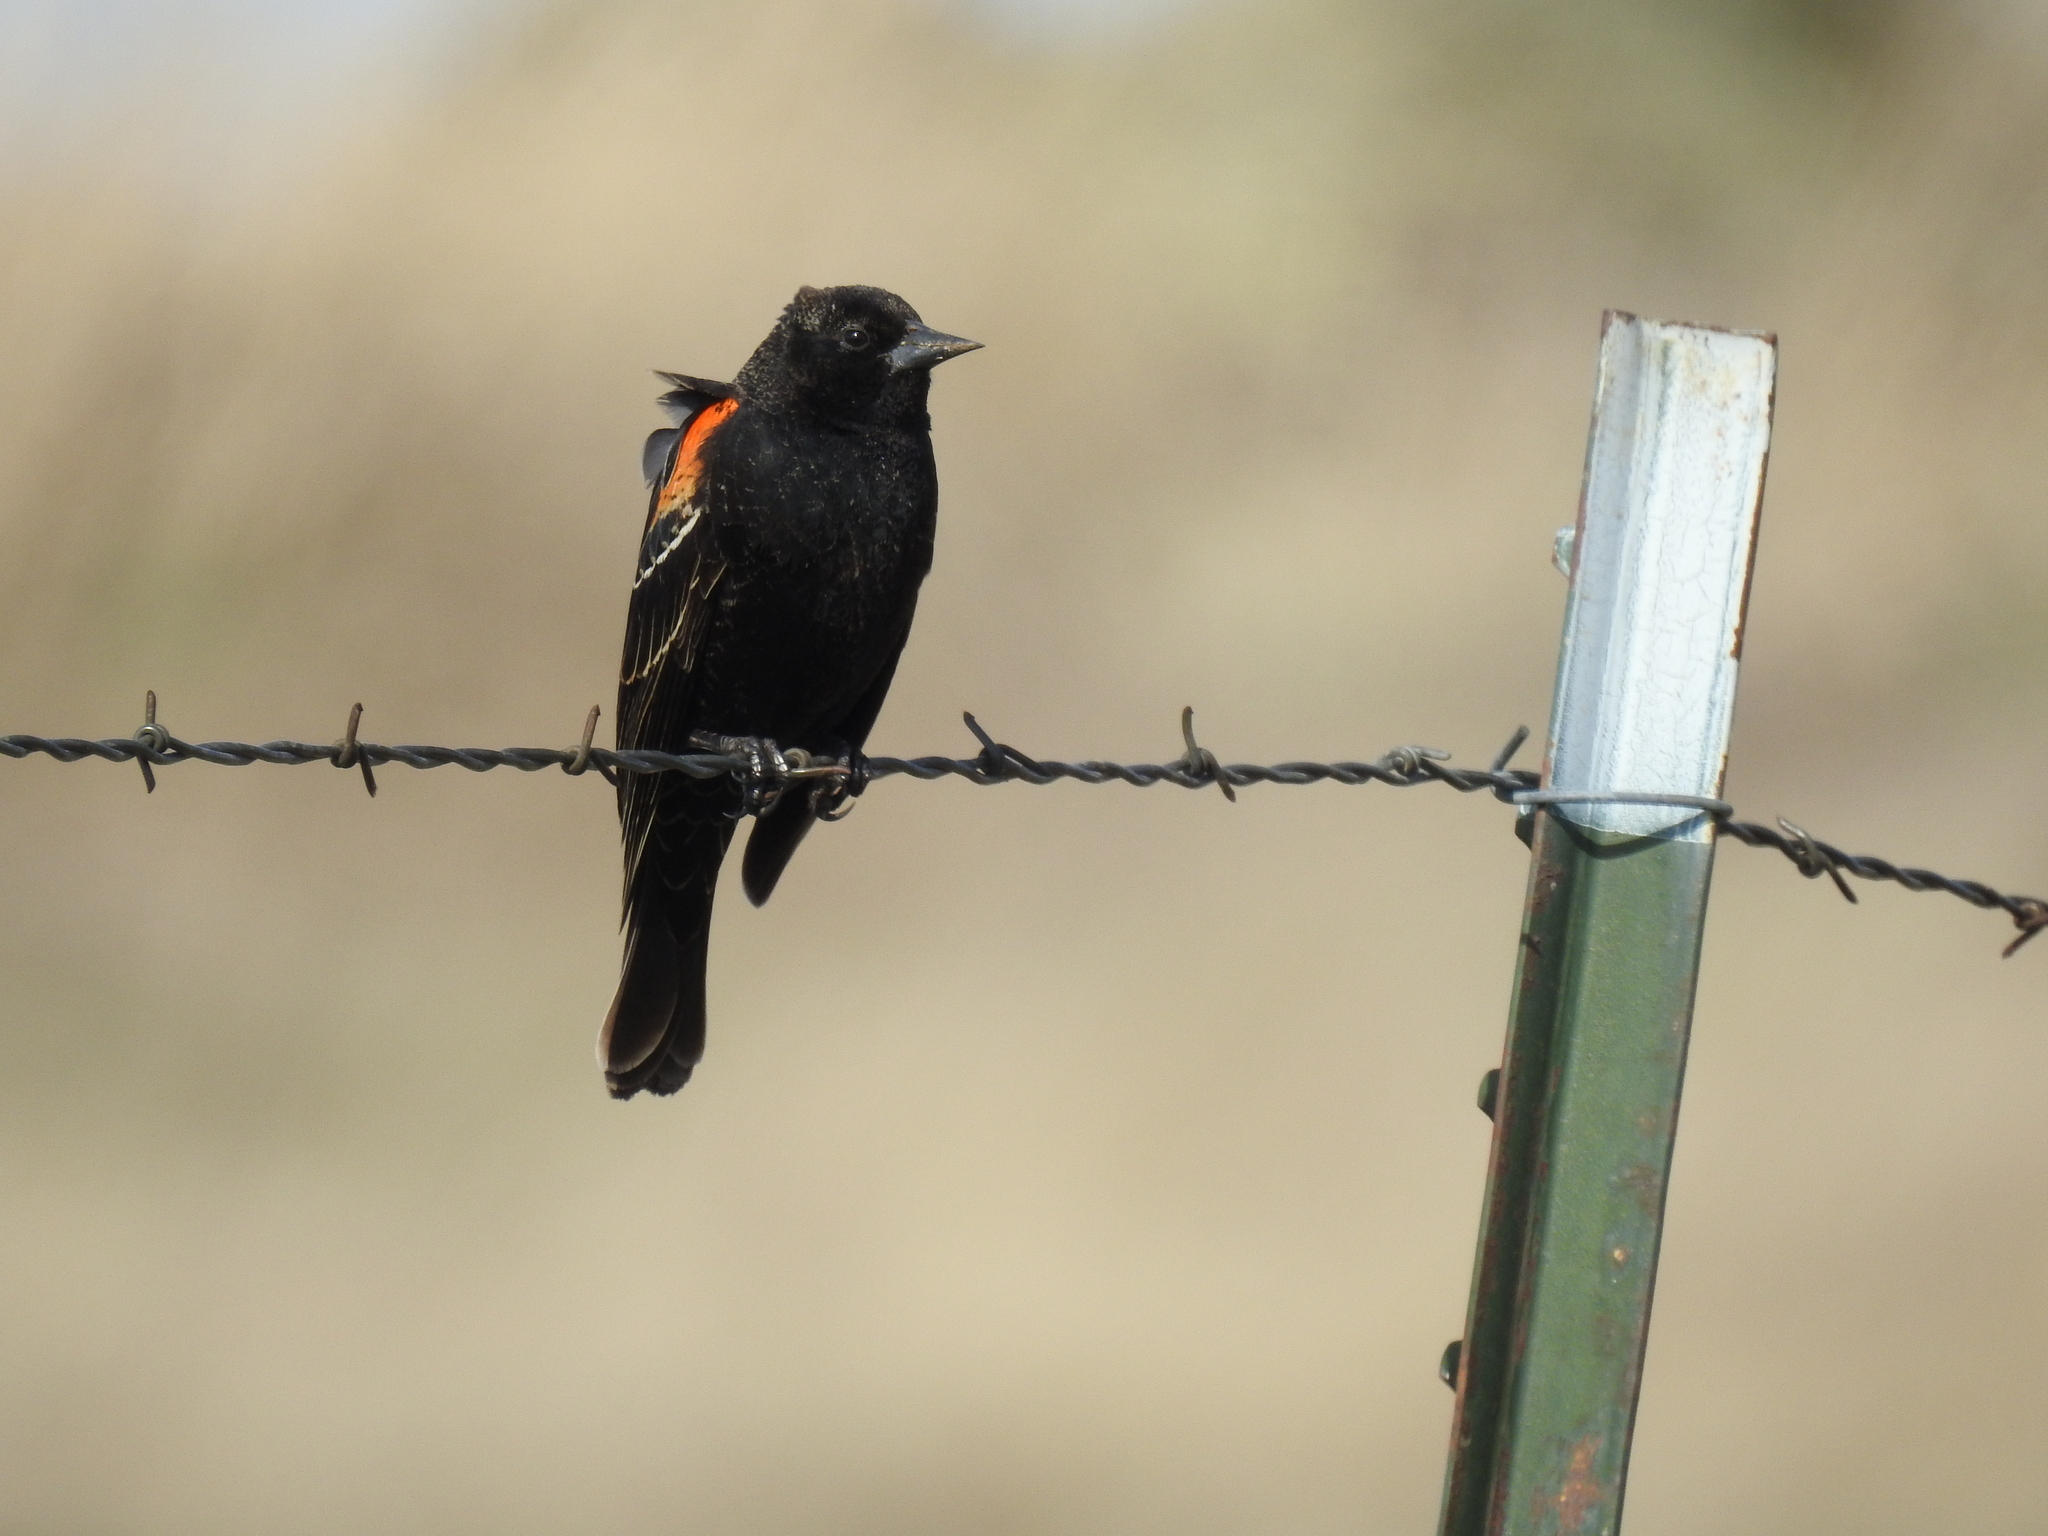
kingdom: Animalia
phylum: Chordata
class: Aves
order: Passeriformes
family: Icteridae
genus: Agelaius
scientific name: Agelaius phoeniceus
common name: Red-winged blackbird
